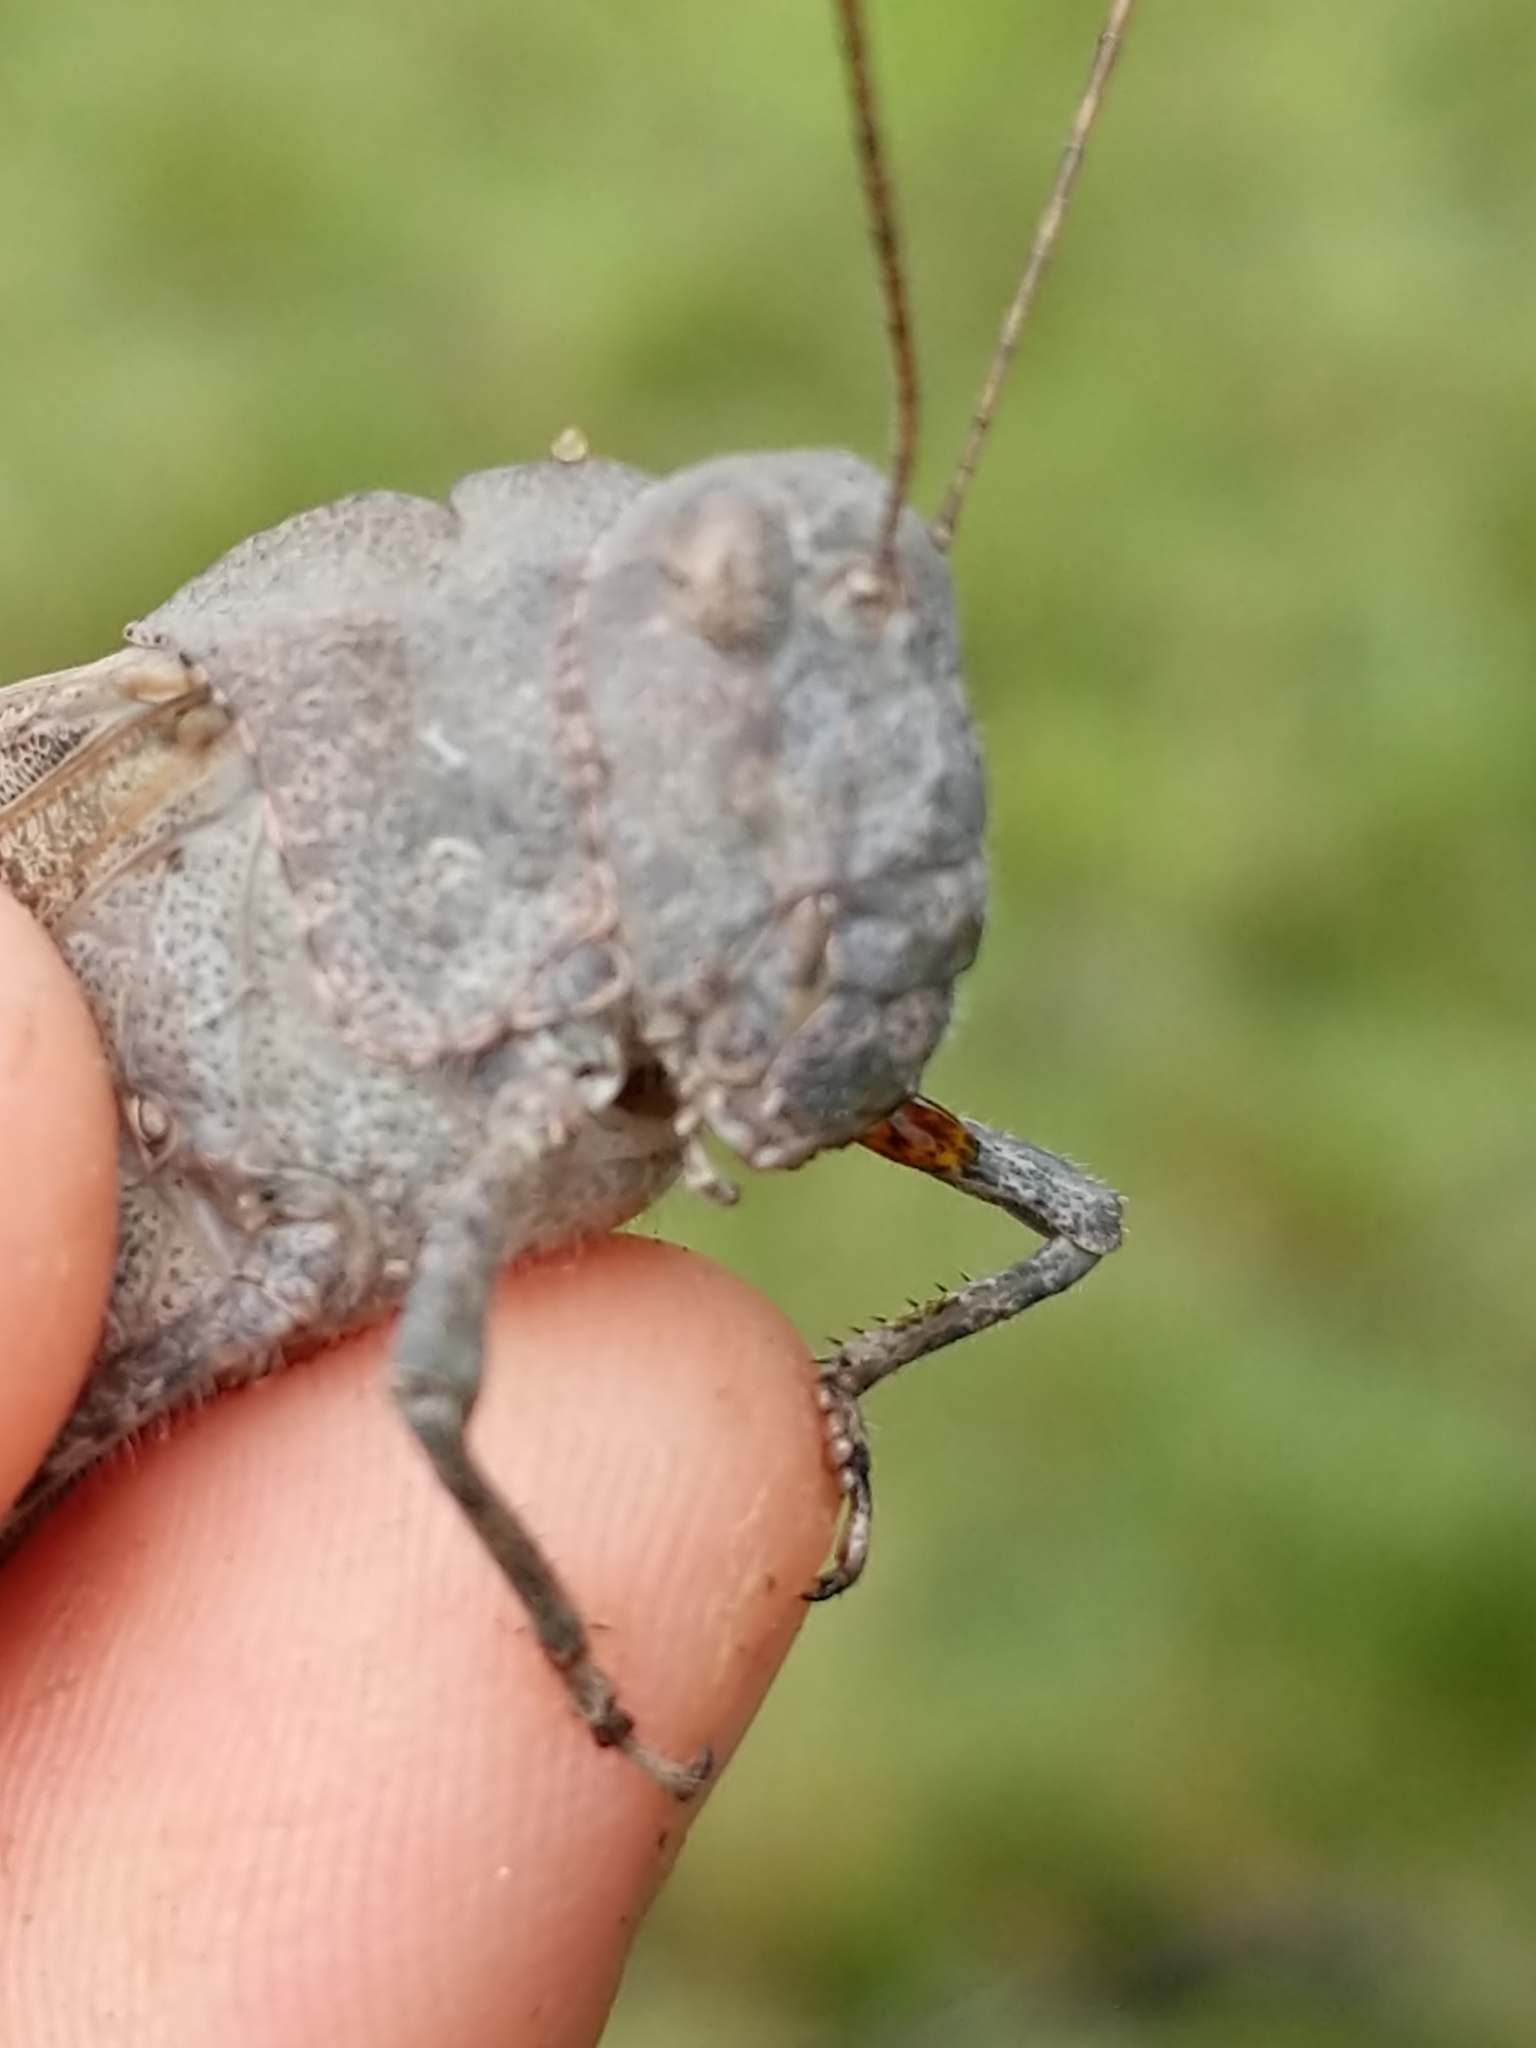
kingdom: Animalia
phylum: Arthropoda
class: Insecta
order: Orthoptera
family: Acrididae
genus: Dissosteira
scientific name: Dissosteira carolina
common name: Carolina grasshopper
